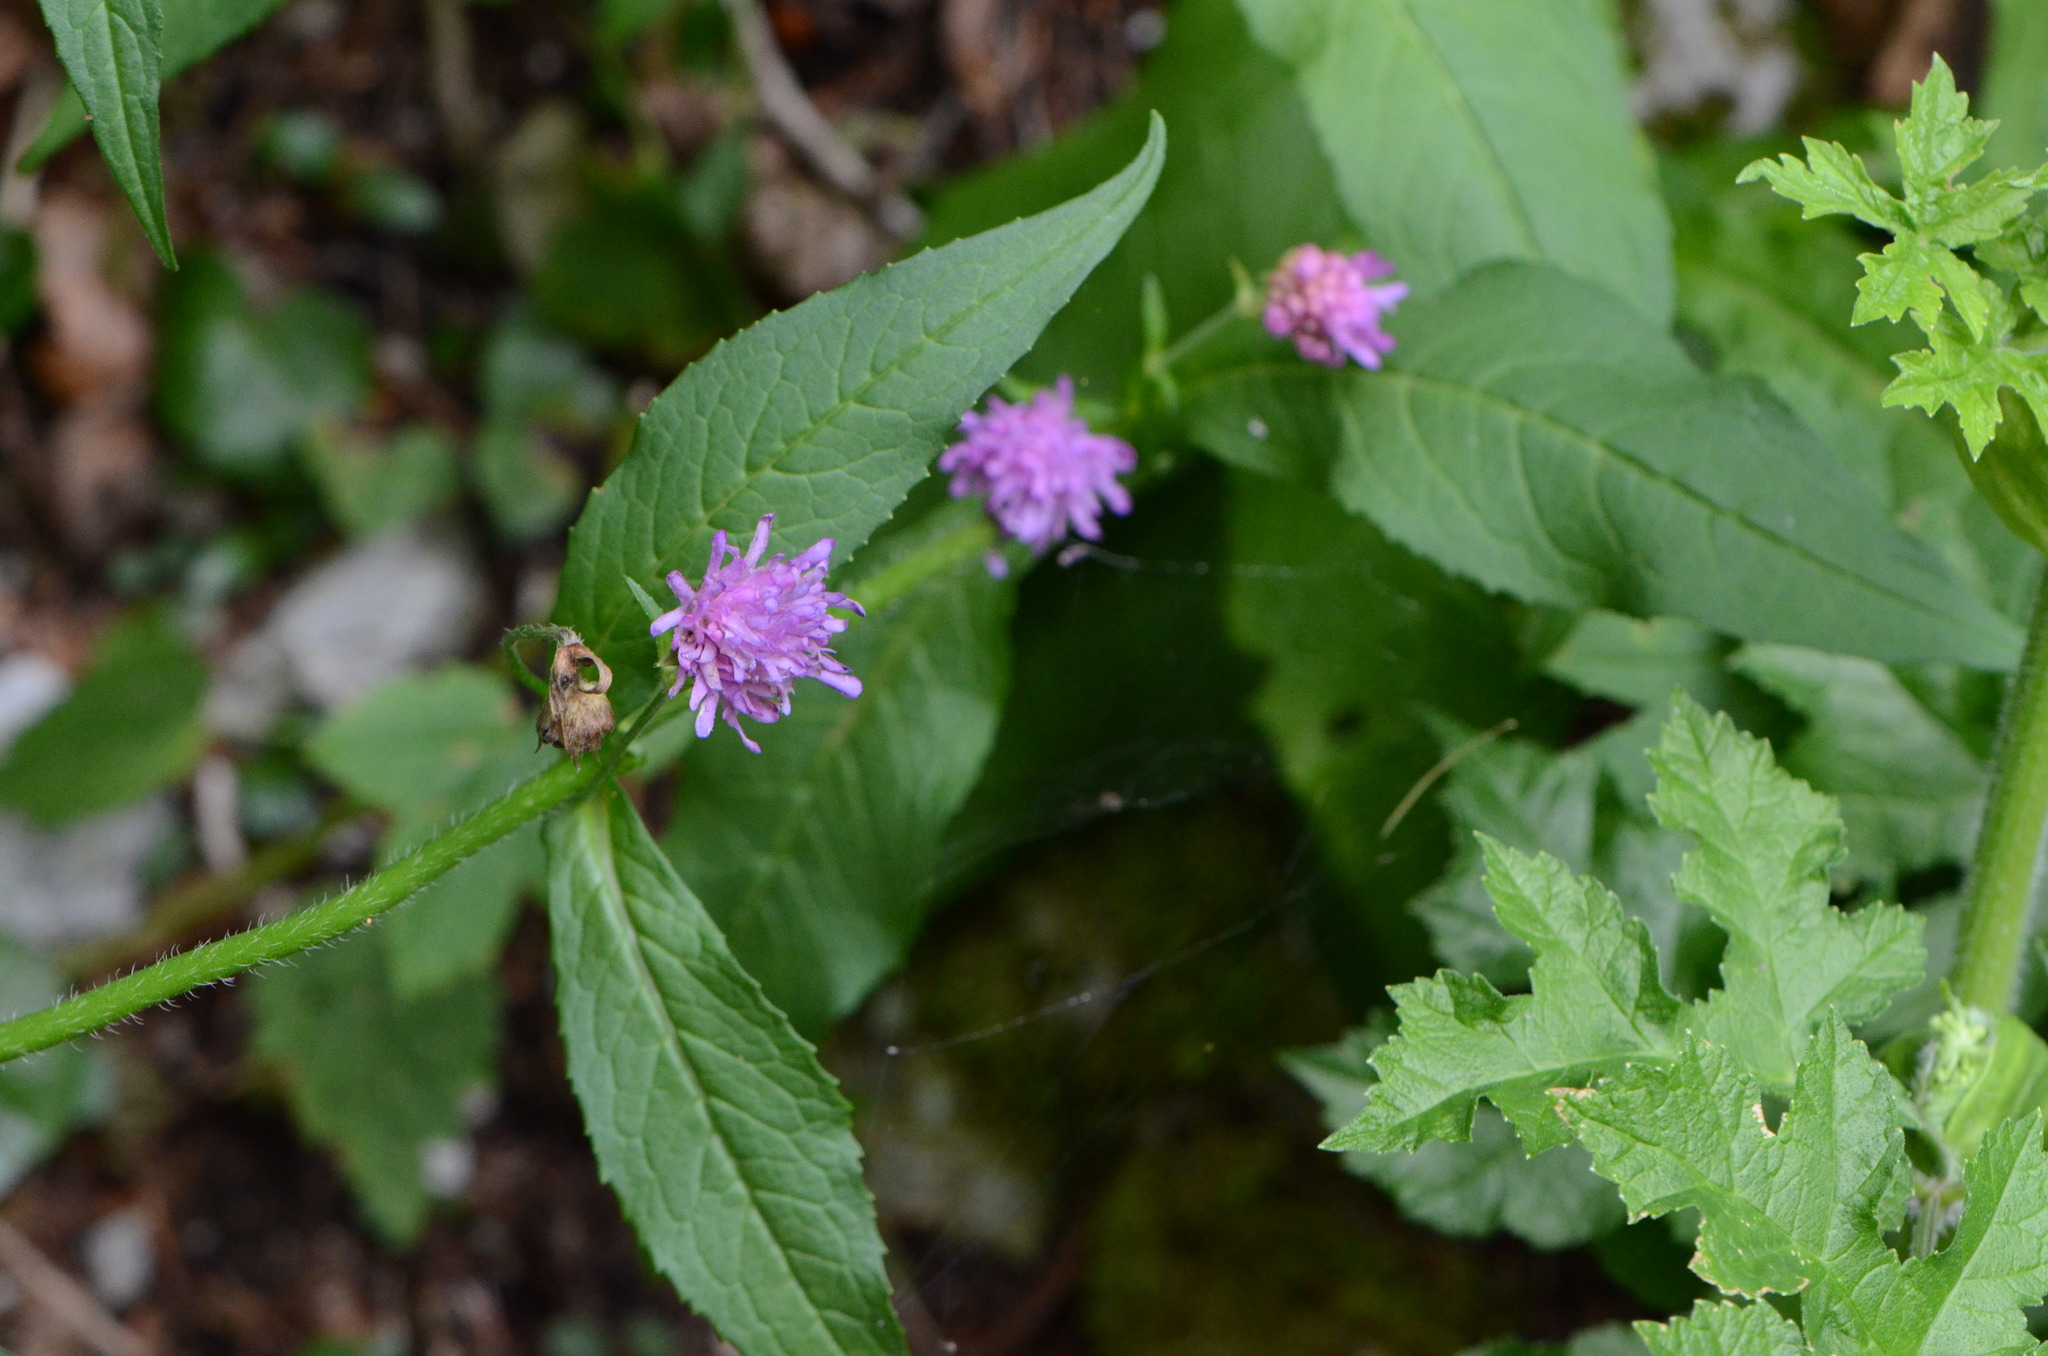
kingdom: Plantae
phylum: Tracheophyta
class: Magnoliopsida
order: Dipsacales
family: Caprifoliaceae
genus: Knautia
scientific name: Knautia dipsacifolia
